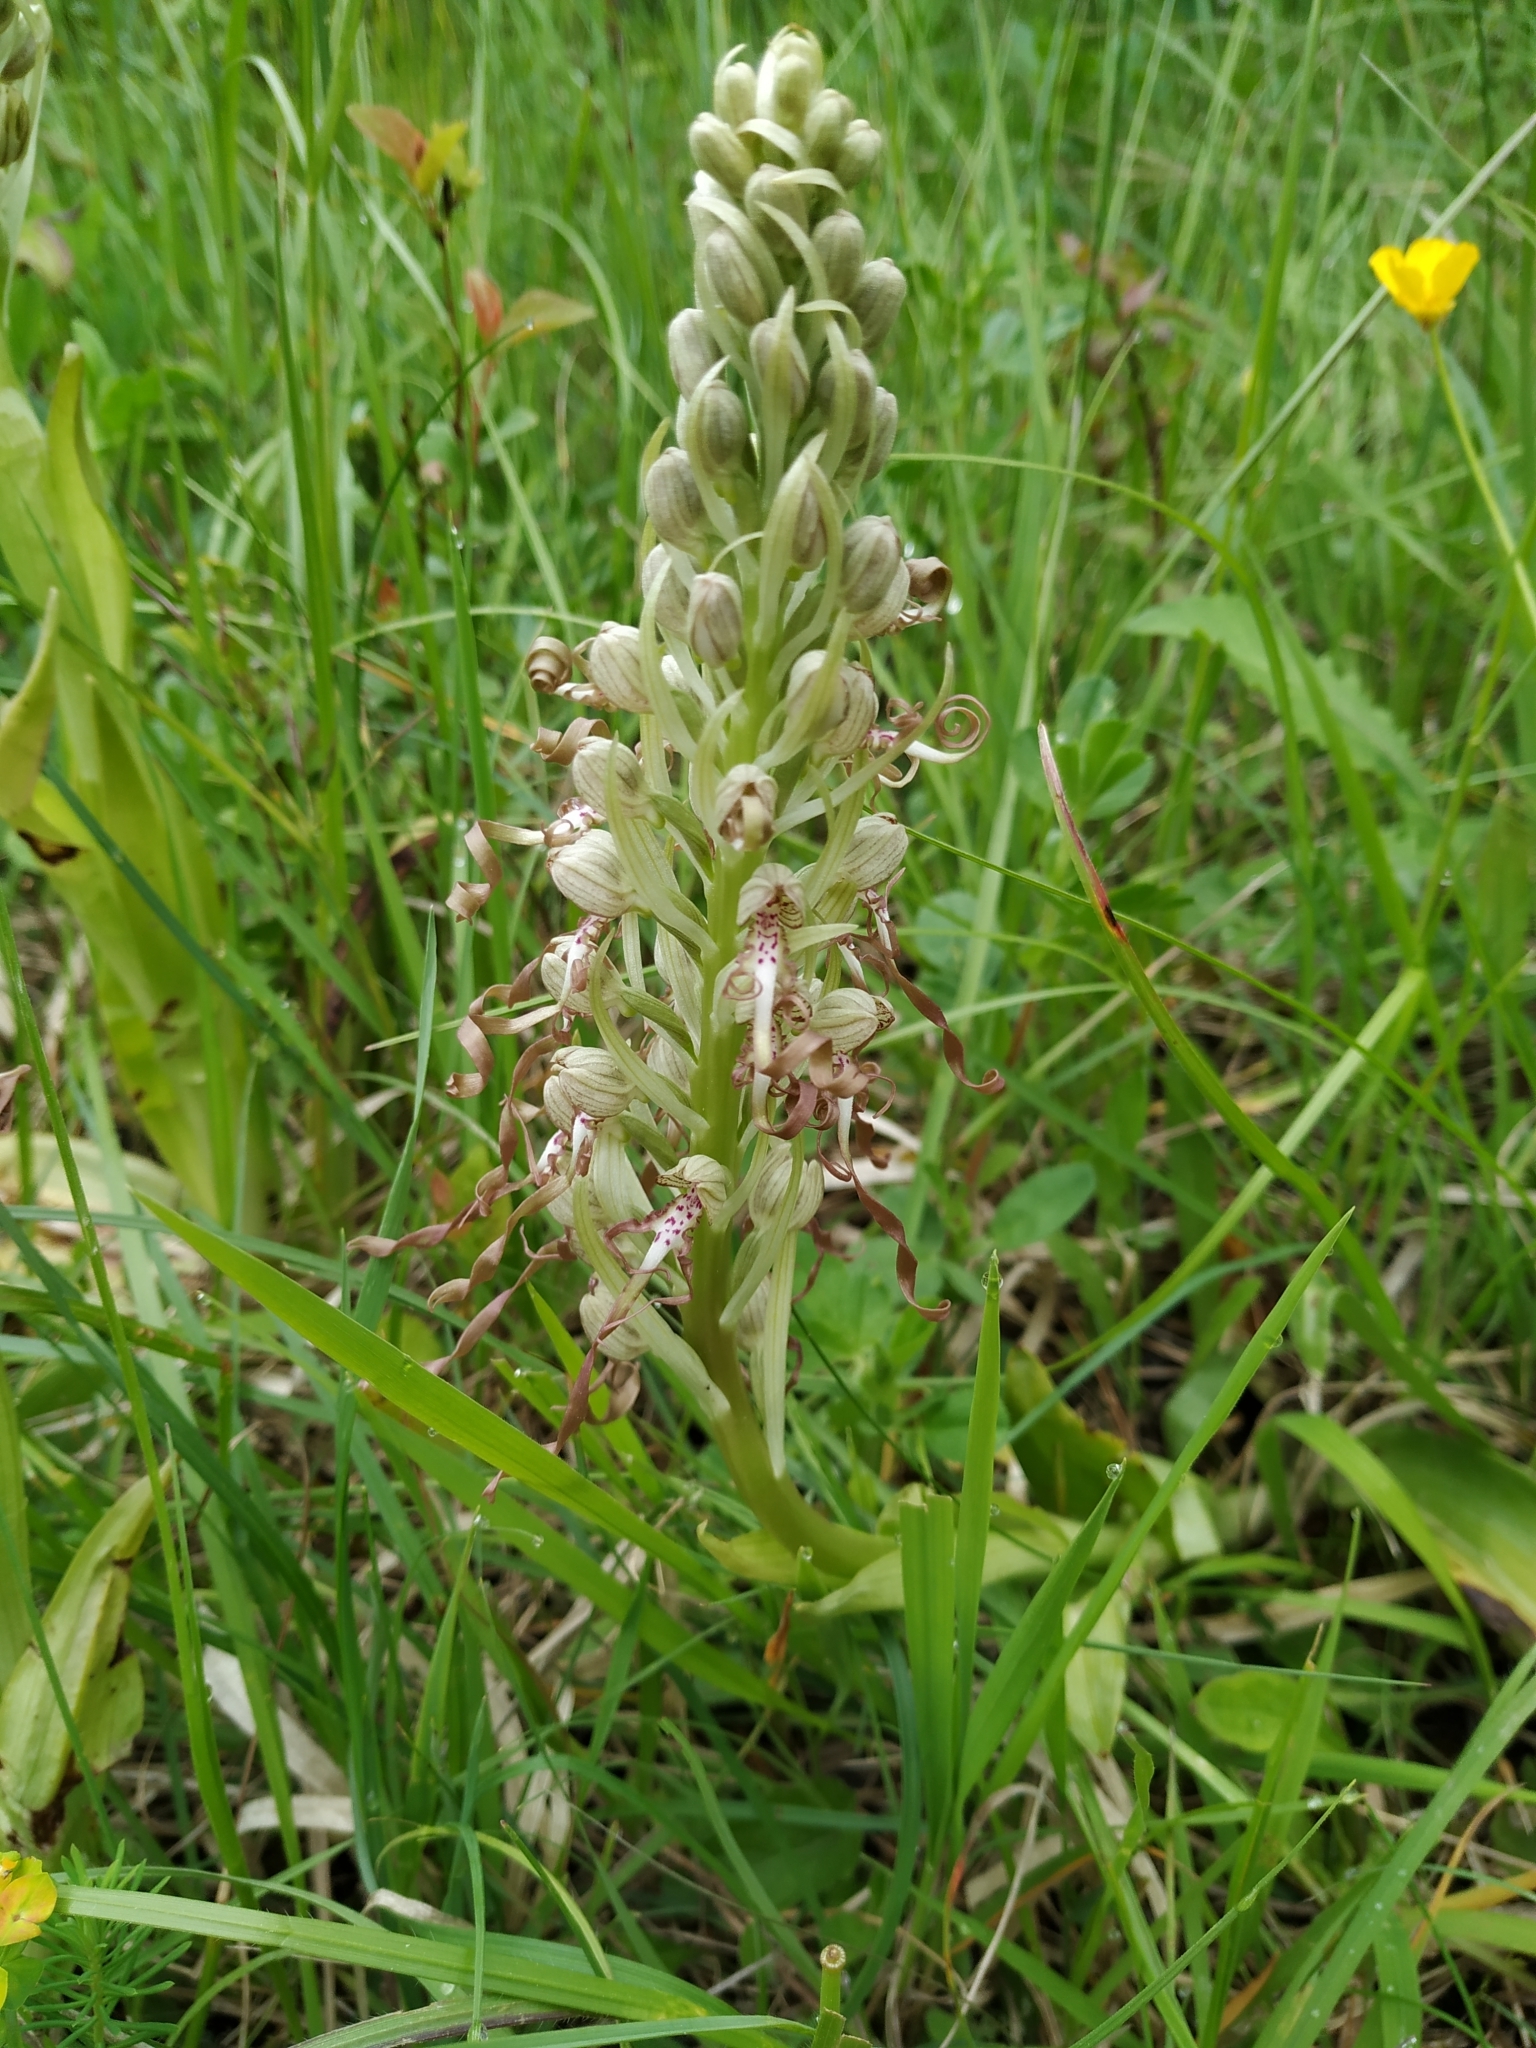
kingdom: Plantae
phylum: Tracheophyta
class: Liliopsida
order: Asparagales
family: Orchidaceae
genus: Himantoglossum
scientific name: Himantoglossum hircinum
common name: Lizard orchid
